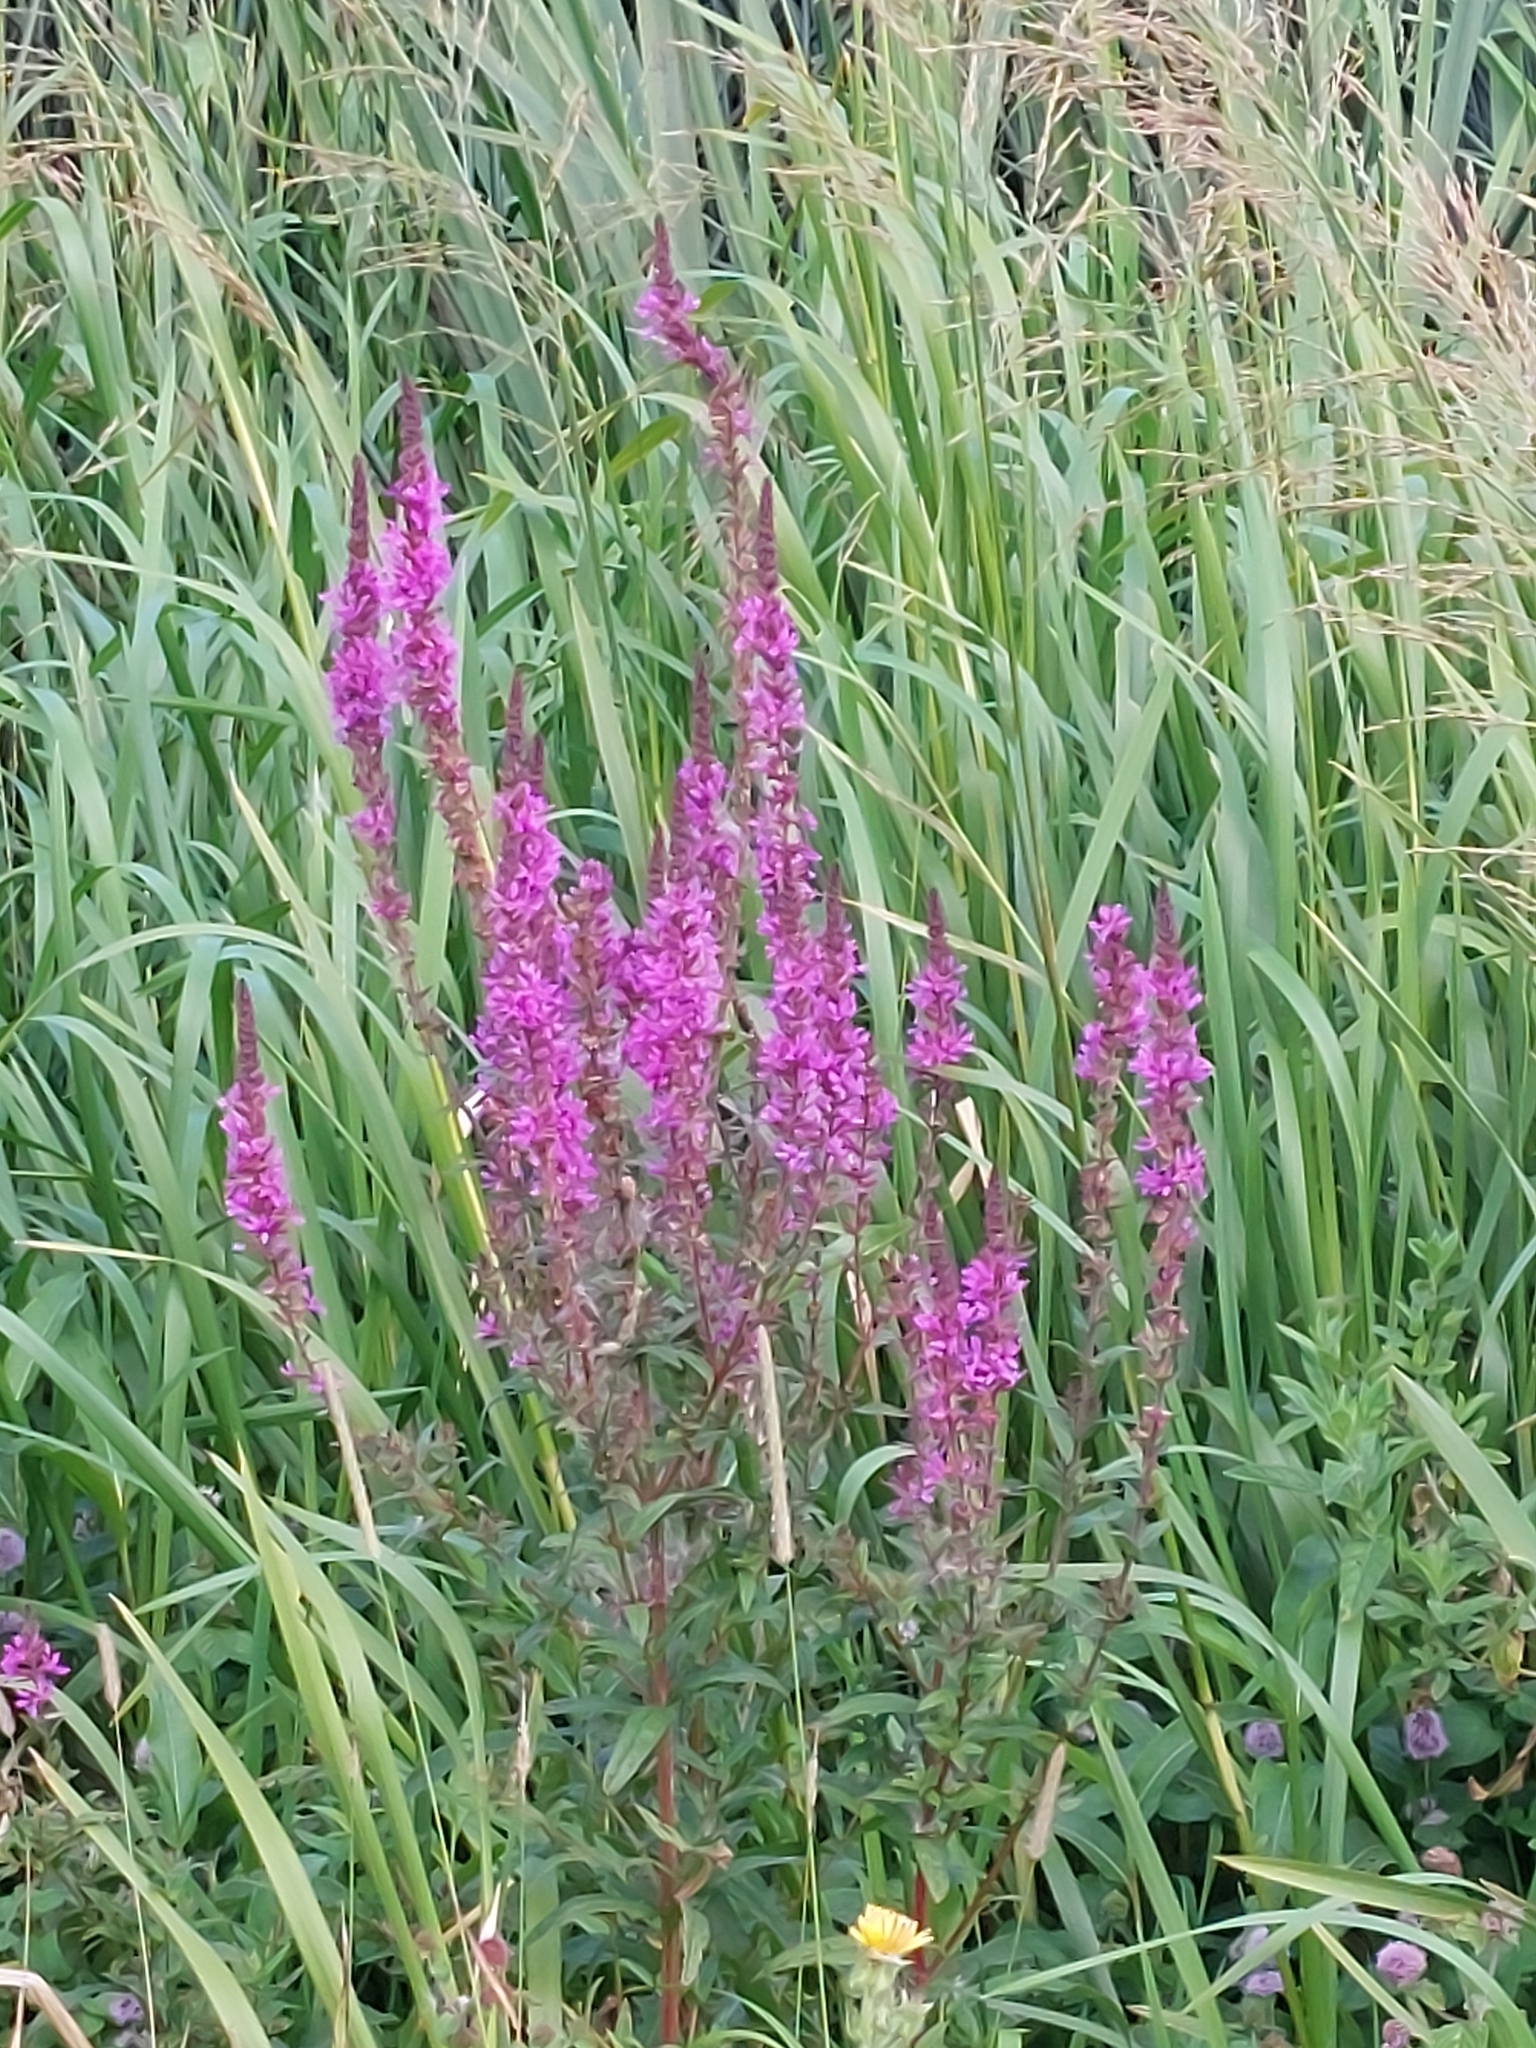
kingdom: Plantae
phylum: Tracheophyta
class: Magnoliopsida
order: Myrtales
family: Lythraceae
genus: Lythrum
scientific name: Lythrum salicaria
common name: Purple loosestrife
